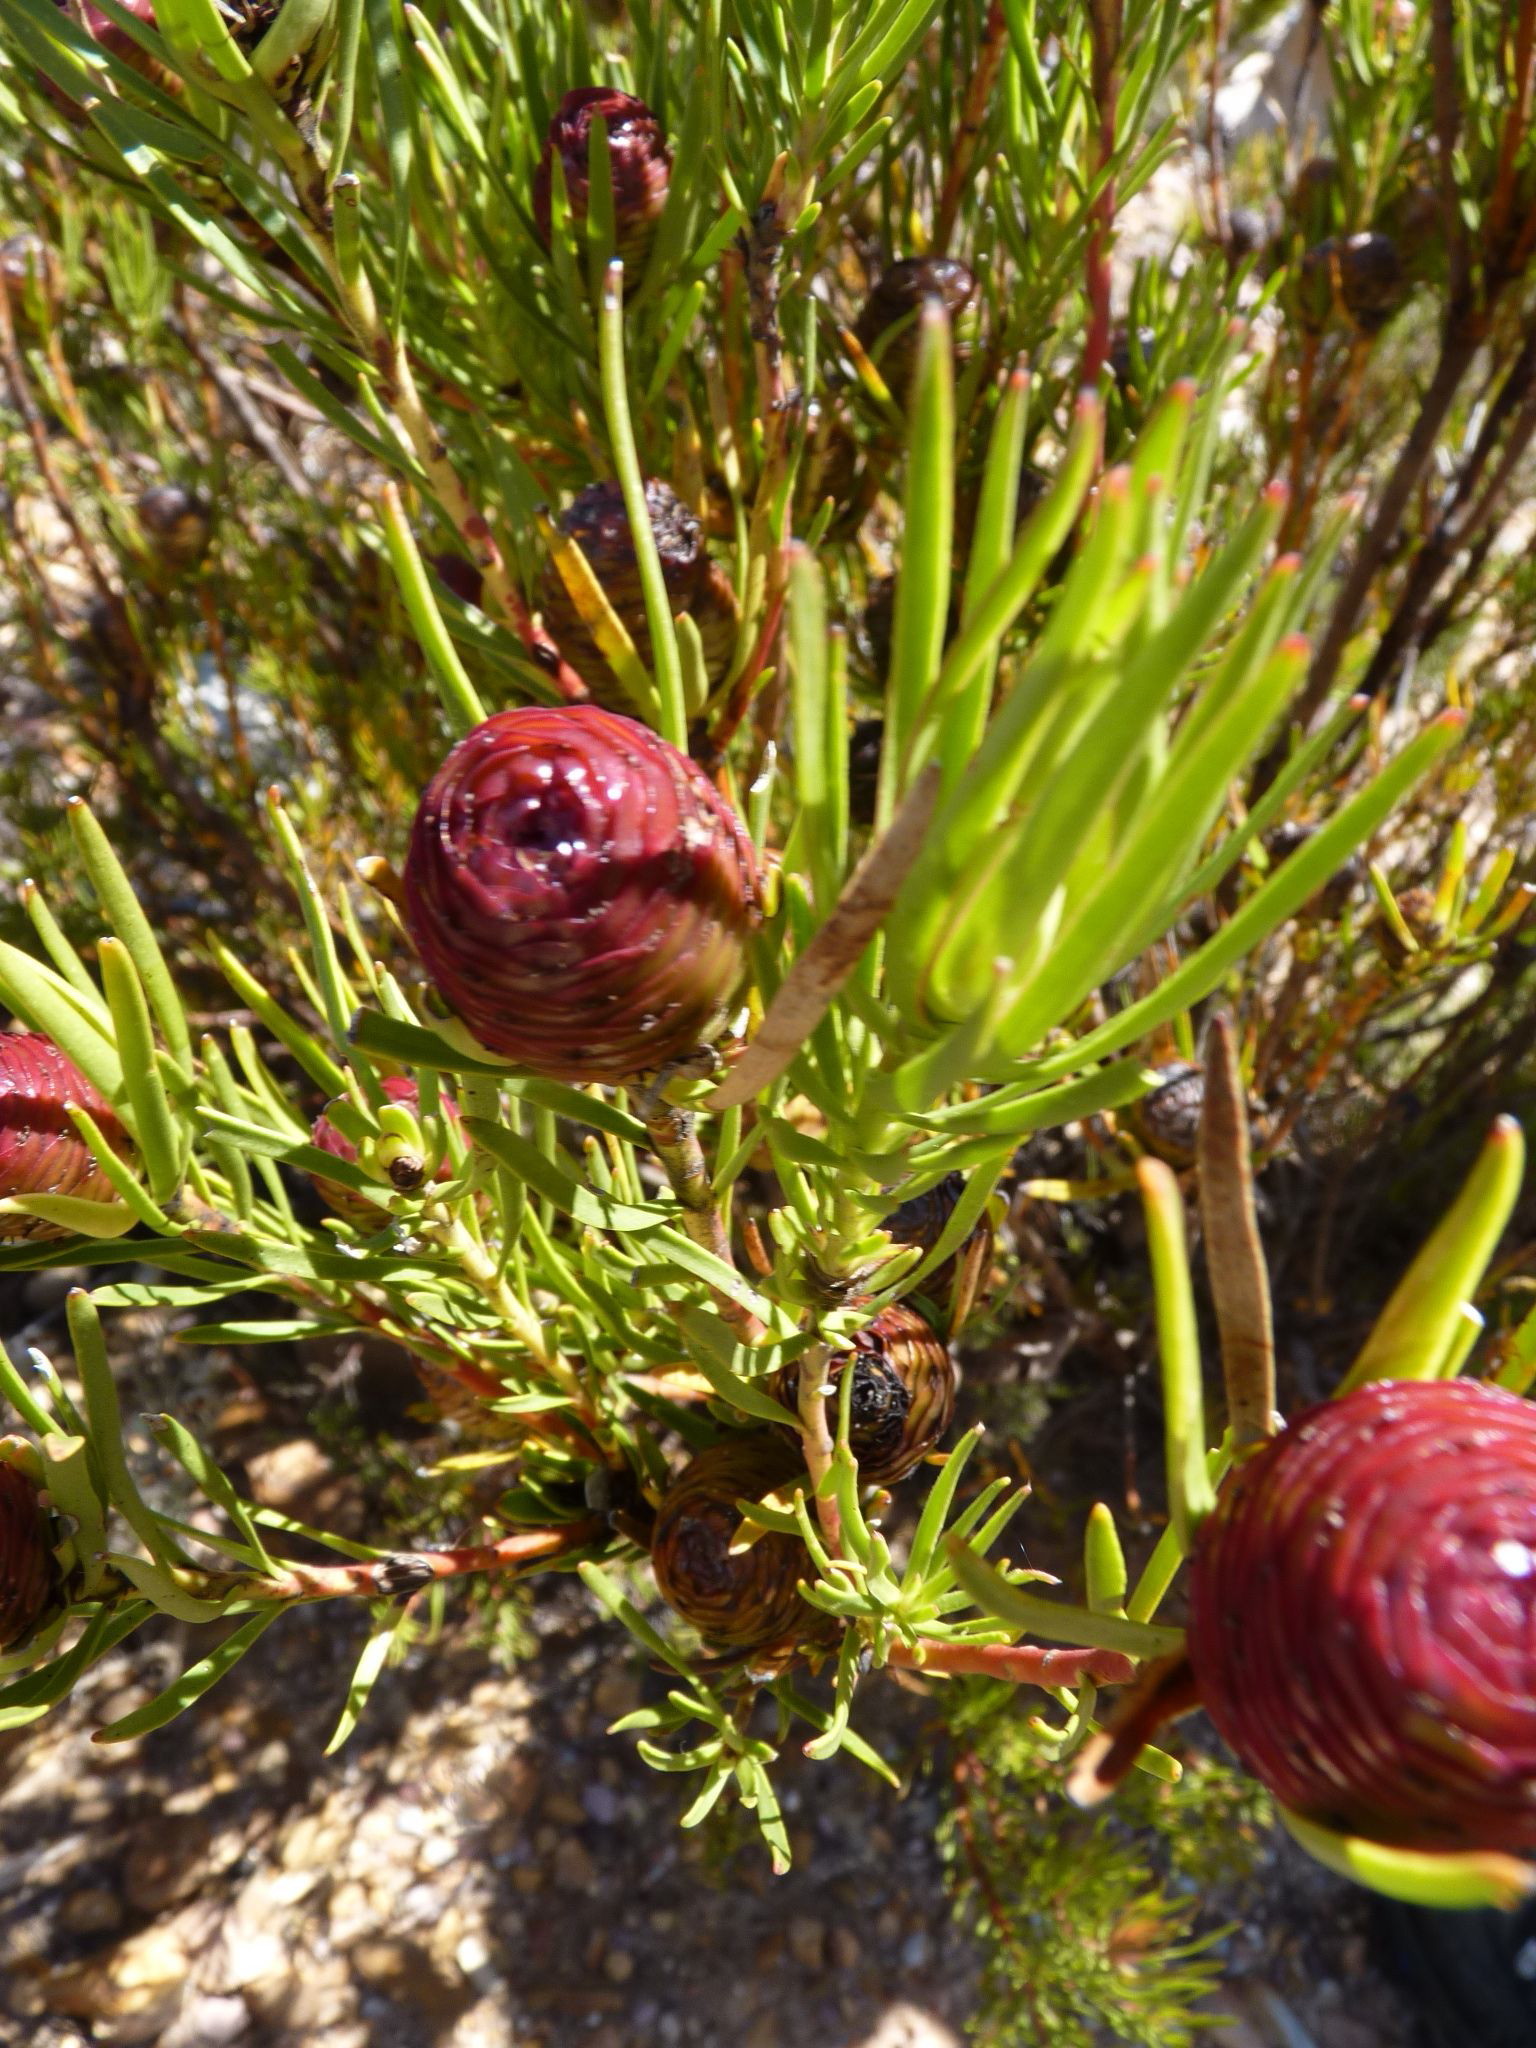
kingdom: Plantae
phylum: Tracheophyta
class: Magnoliopsida
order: Proteales
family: Proteaceae
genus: Leucadendron
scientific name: Leucadendron spissifolium
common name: Spear-leaf conebush
